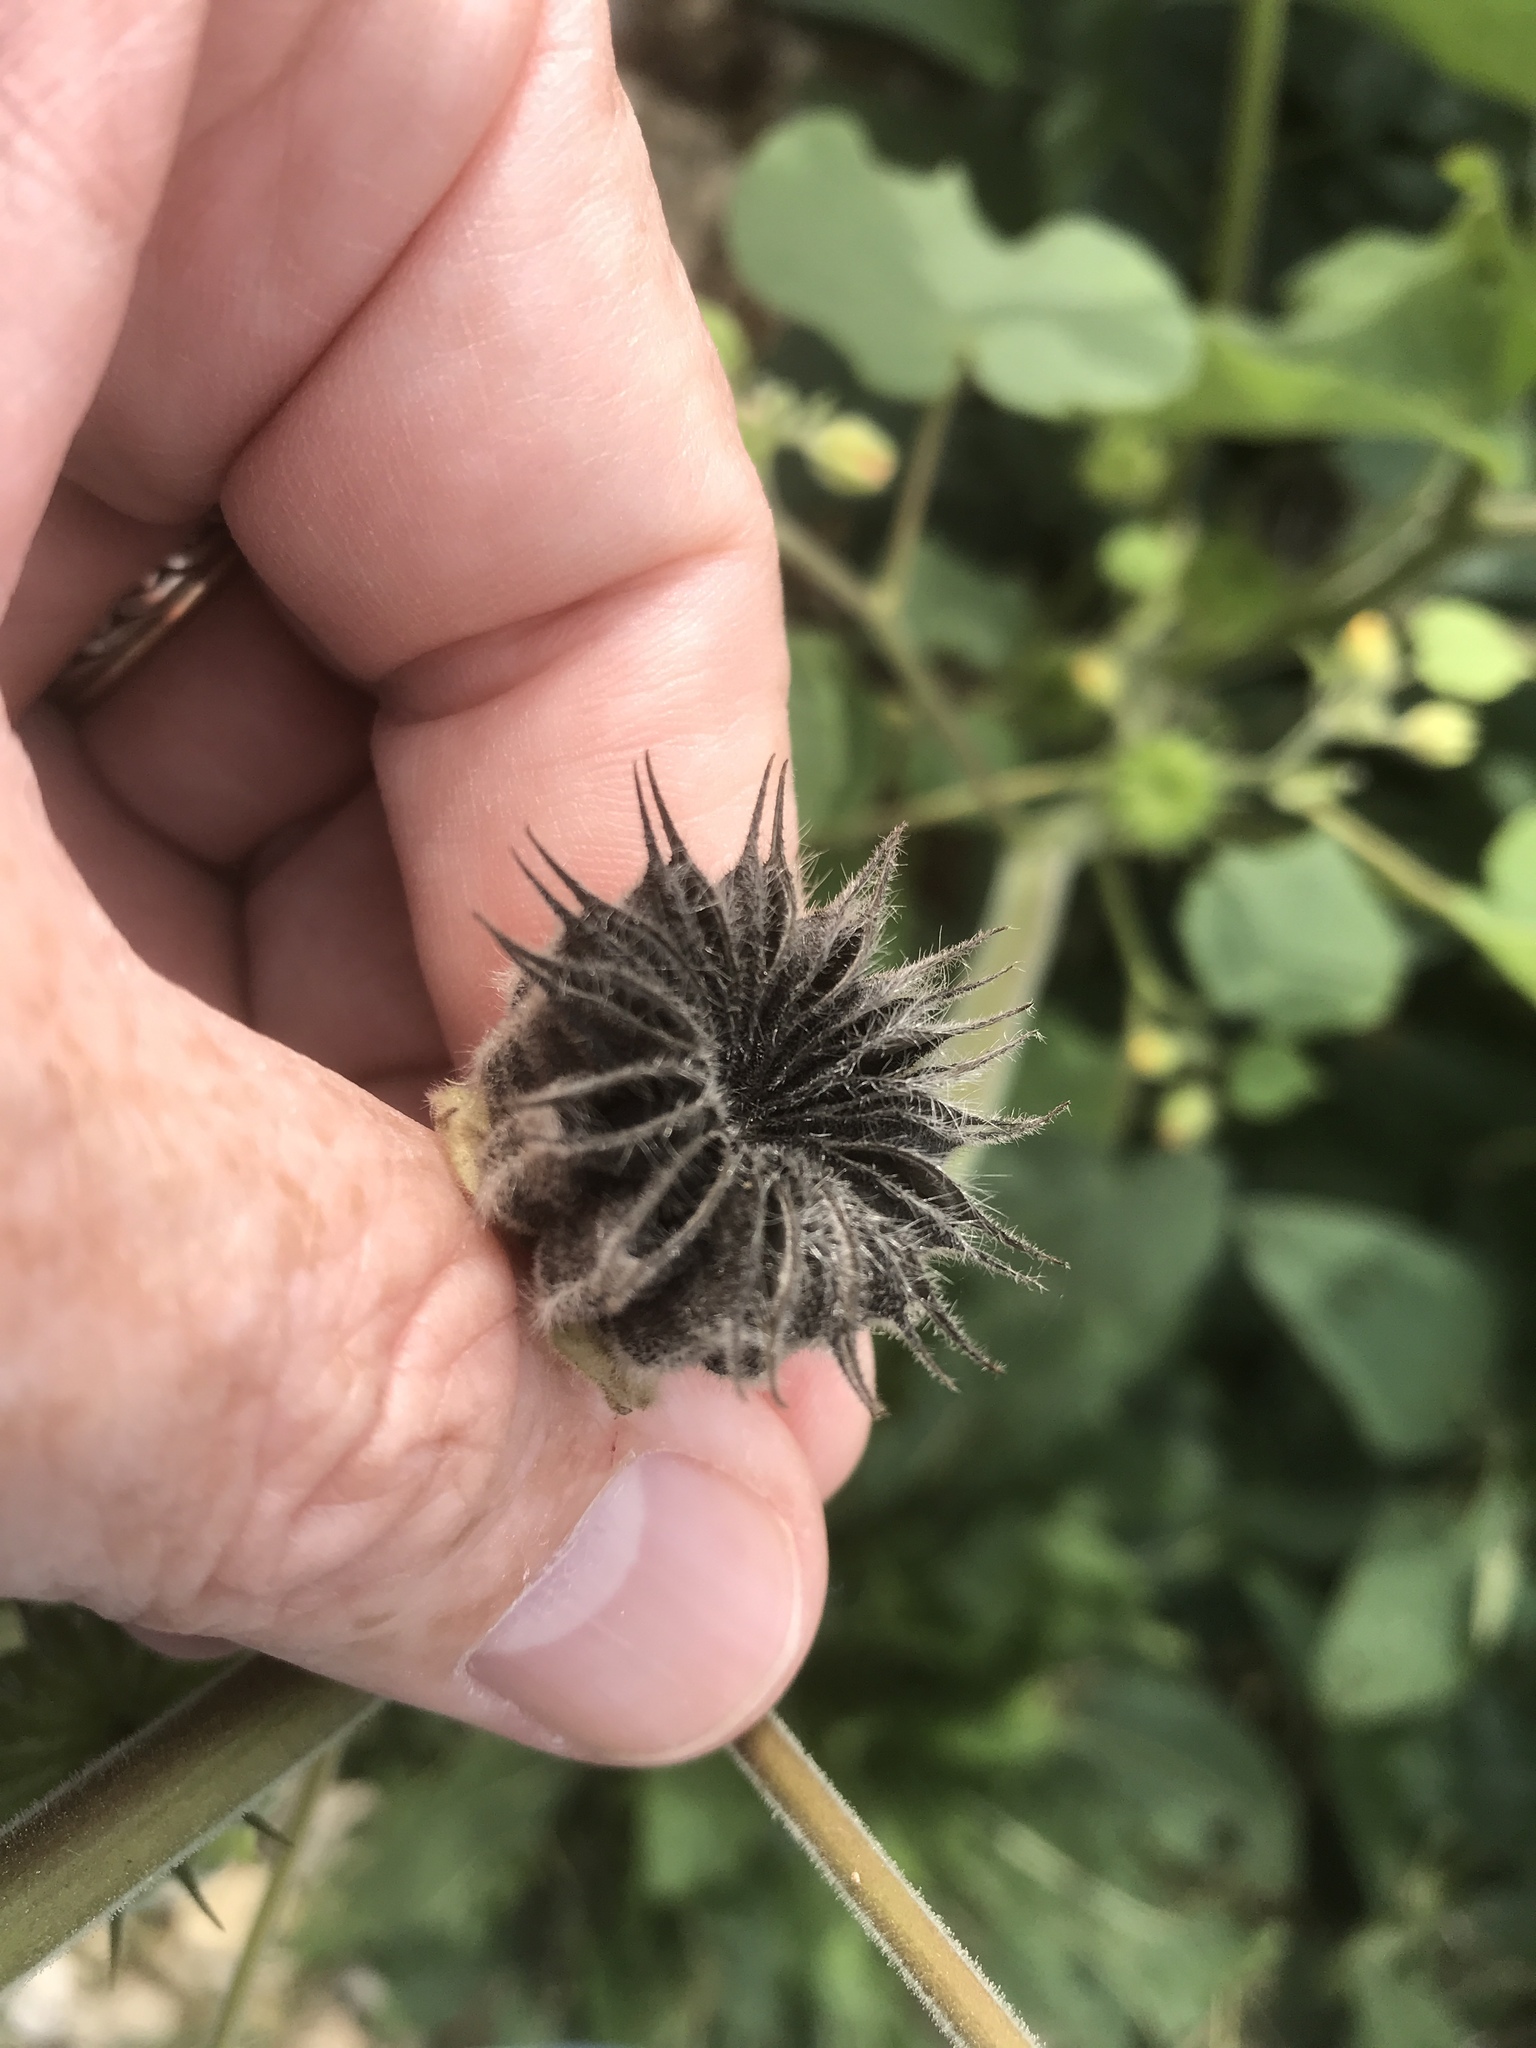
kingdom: Plantae
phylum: Tracheophyta
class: Magnoliopsida
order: Malvales
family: Malvaceae
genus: Abutilon
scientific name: Abutilon theophrasti
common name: Velvetleaf
